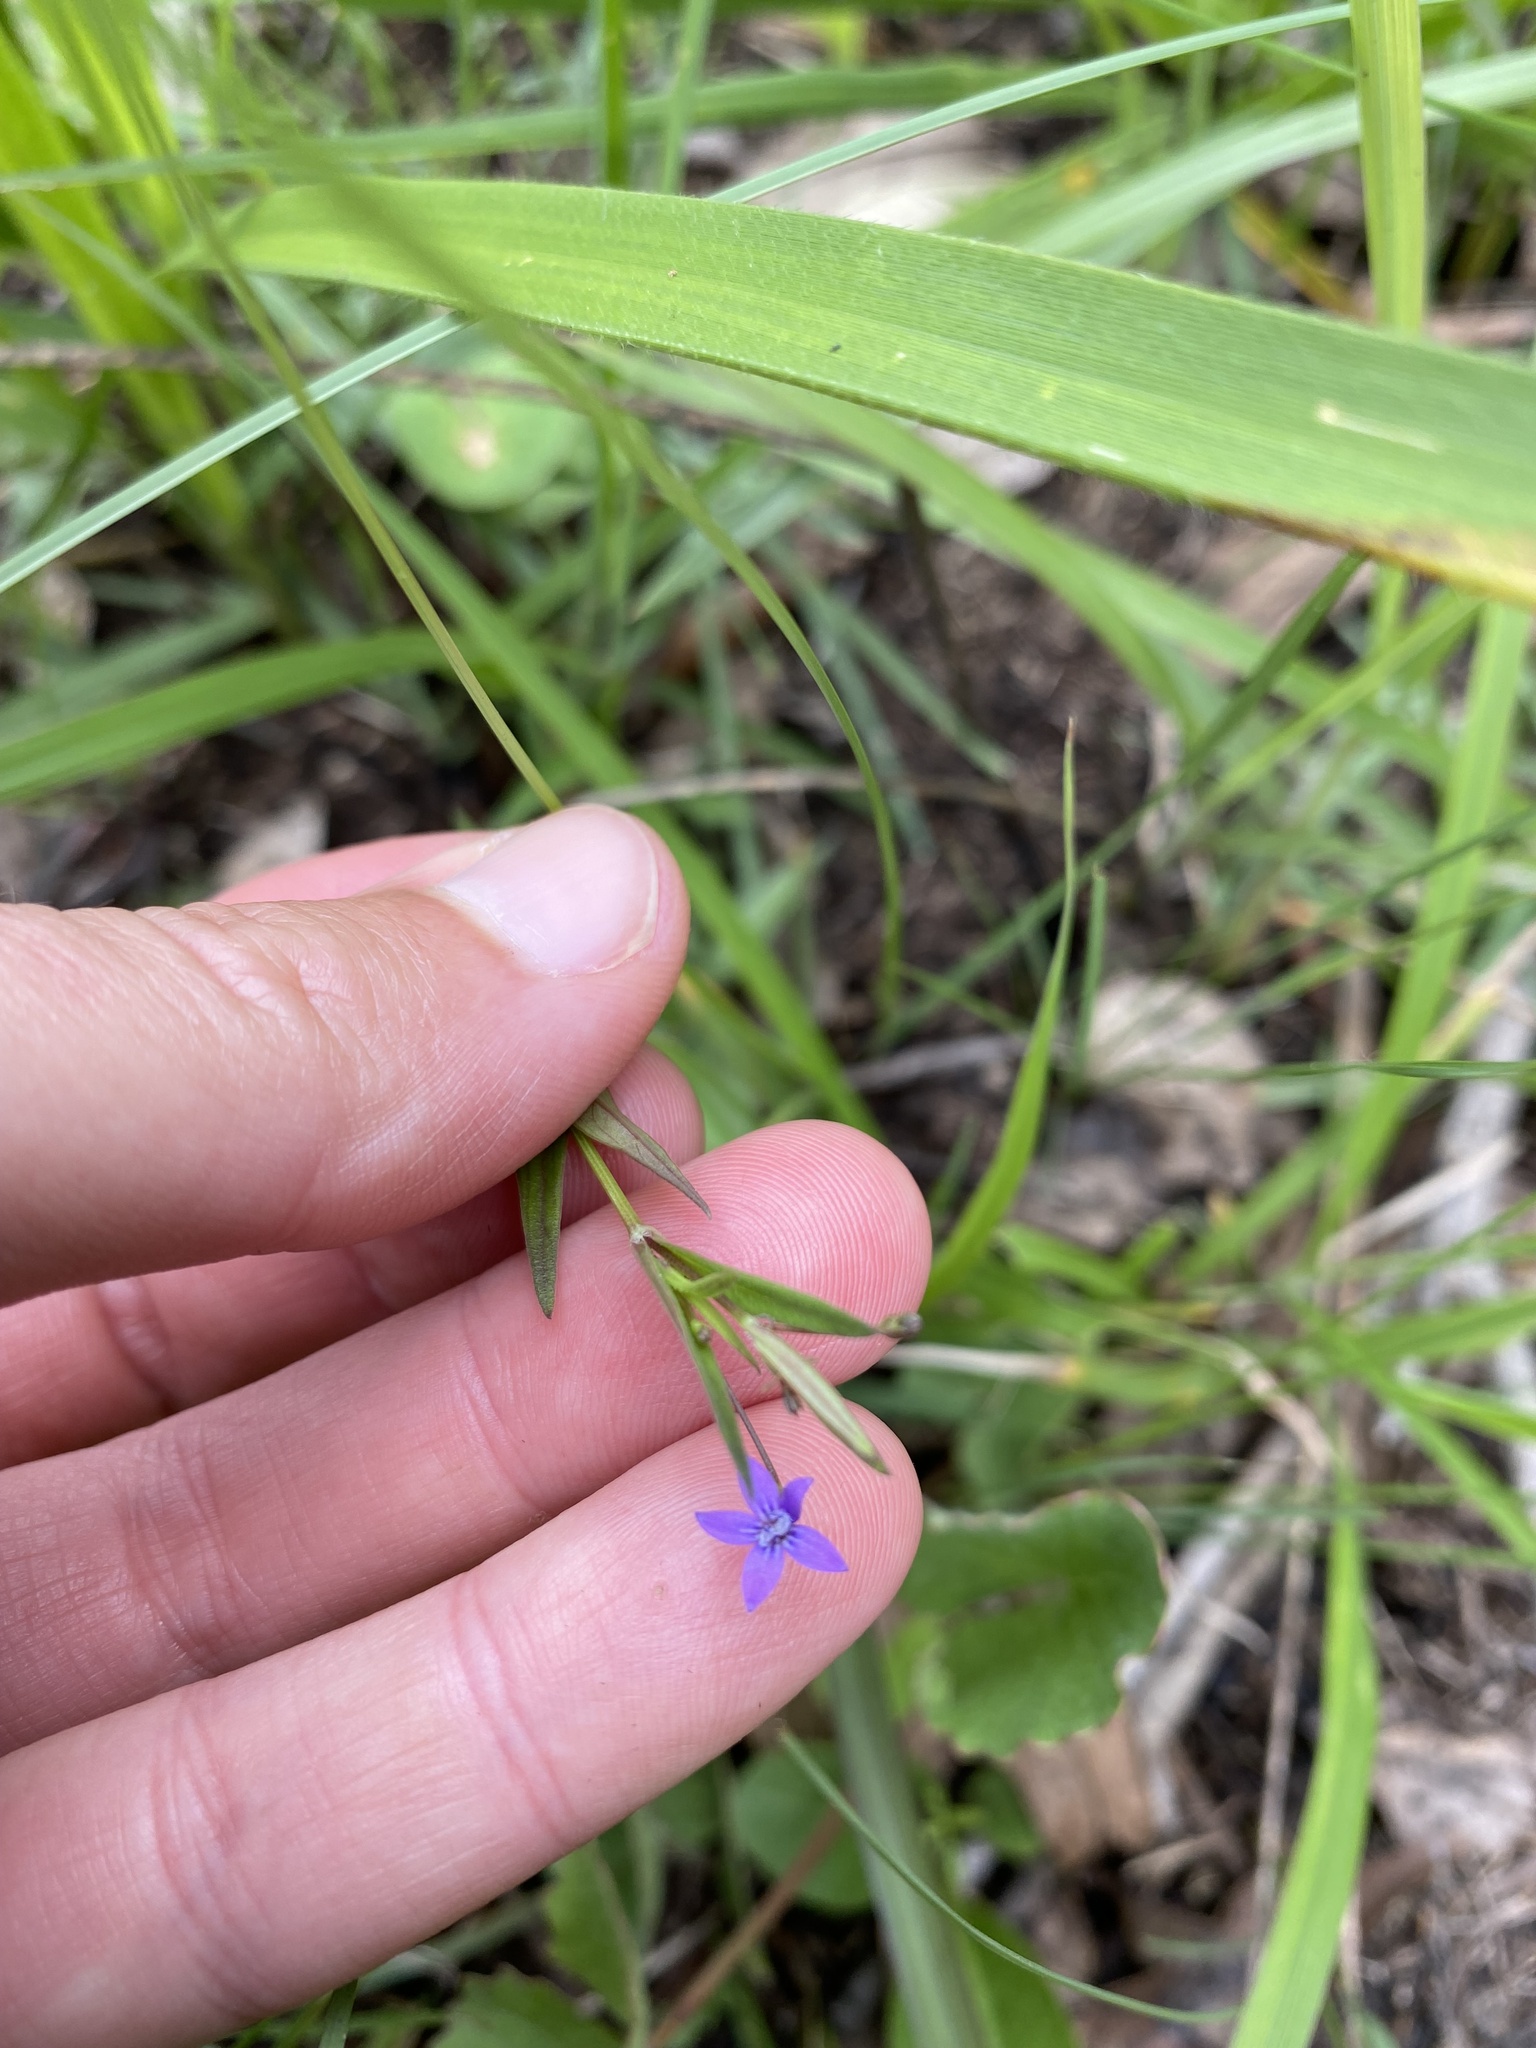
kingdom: Plantae
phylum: Tracheophyta
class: Magnoliopsida
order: Gentianales
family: Rubiaceae
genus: Oldenlandia
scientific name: Oldenlandia affinis
